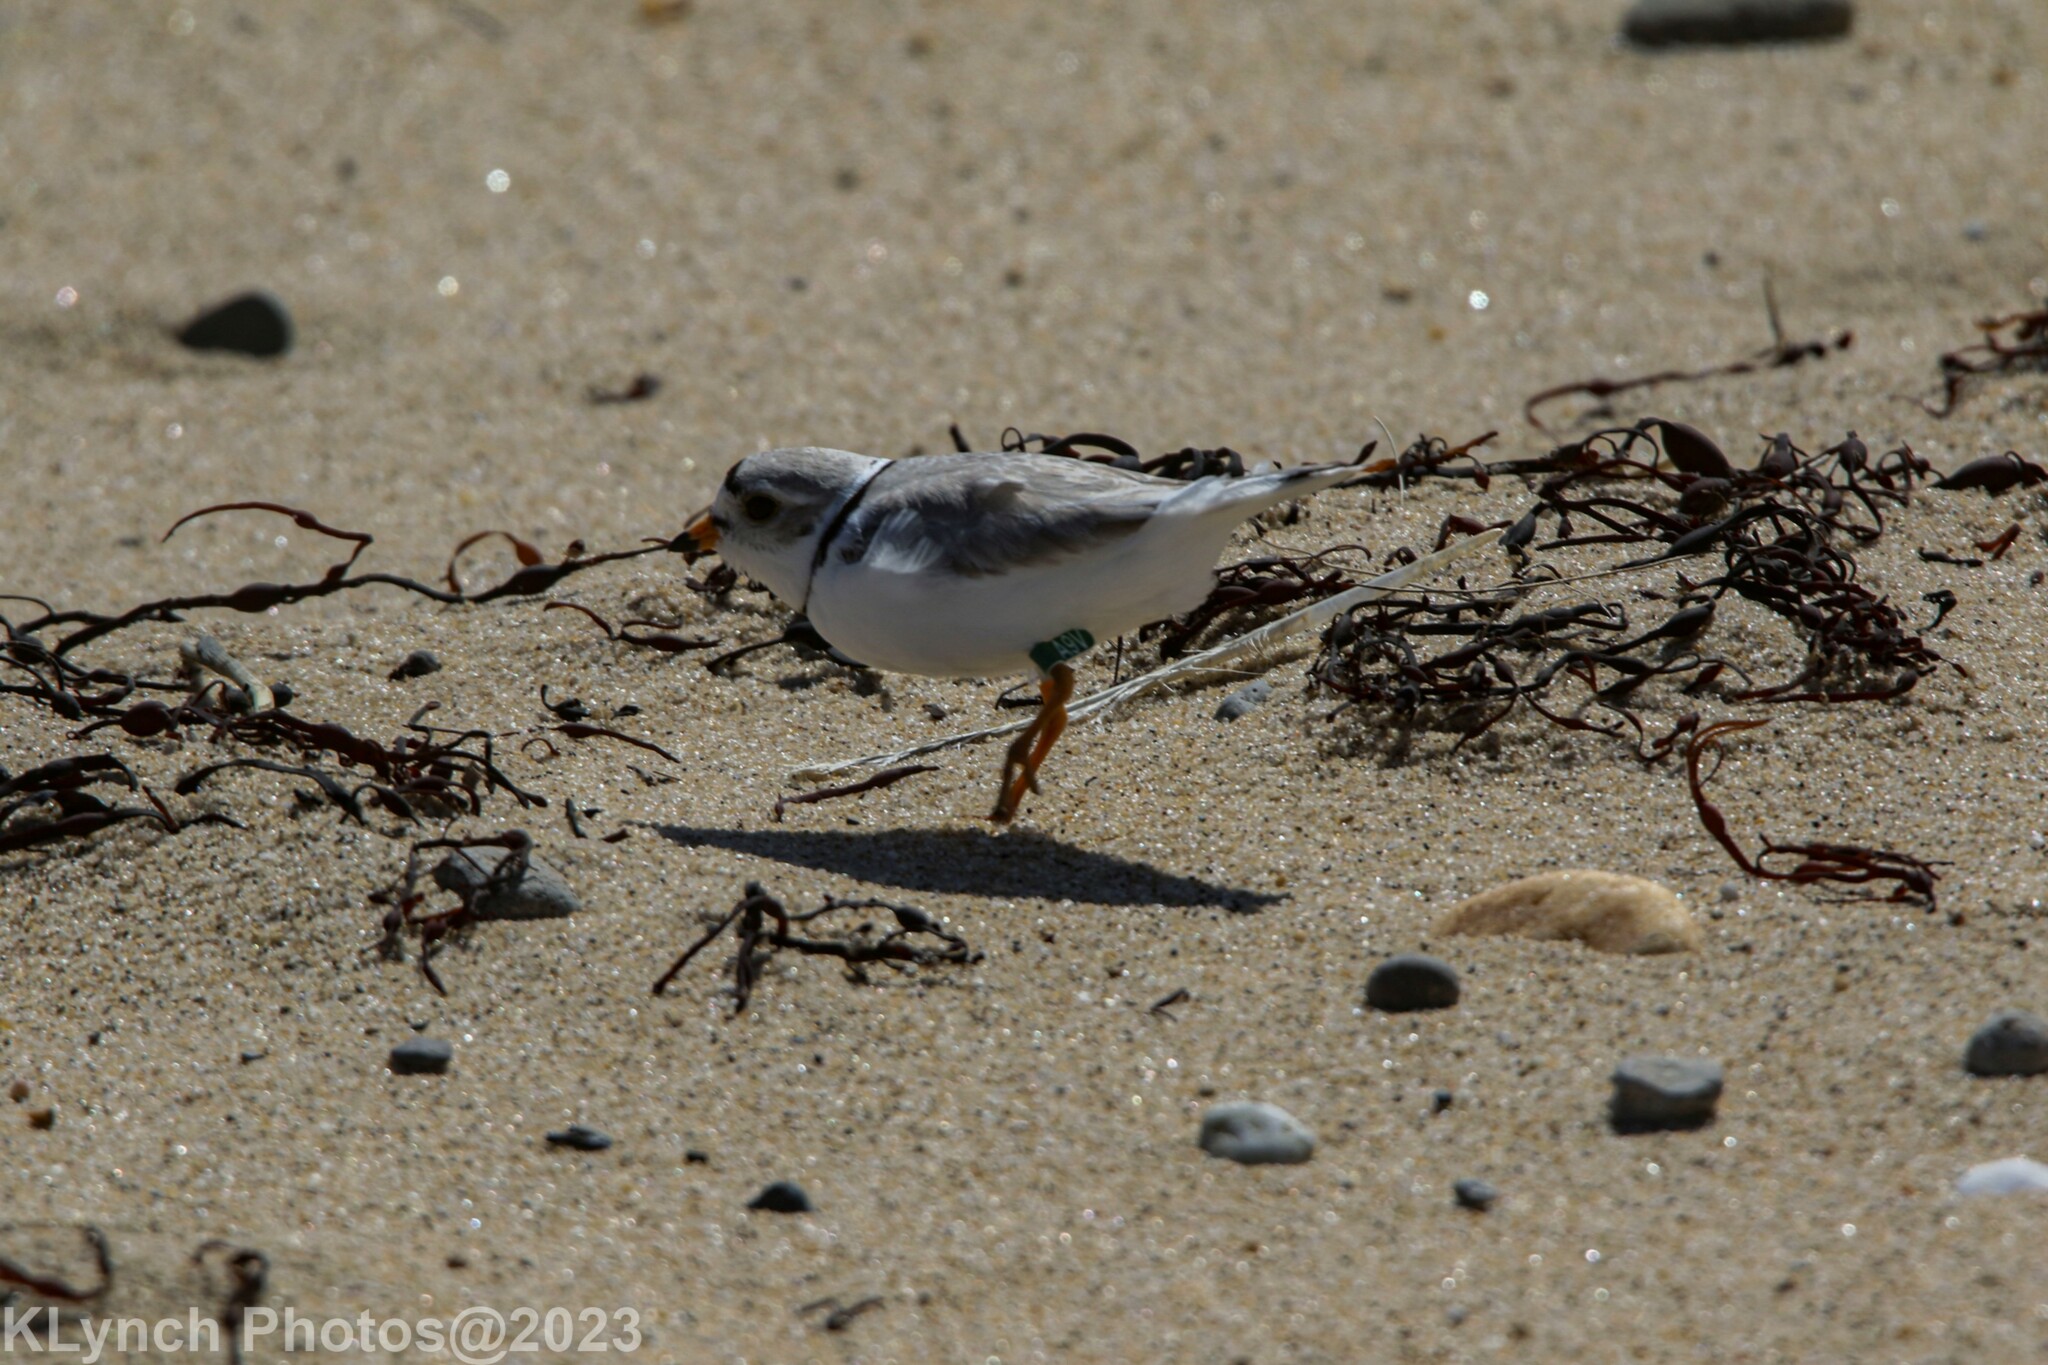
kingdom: Animalia
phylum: Chordata
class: Aves
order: Charadriiformes
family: Charadriidae
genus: Charadrius
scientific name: Charadrius melodus
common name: Piping plover
